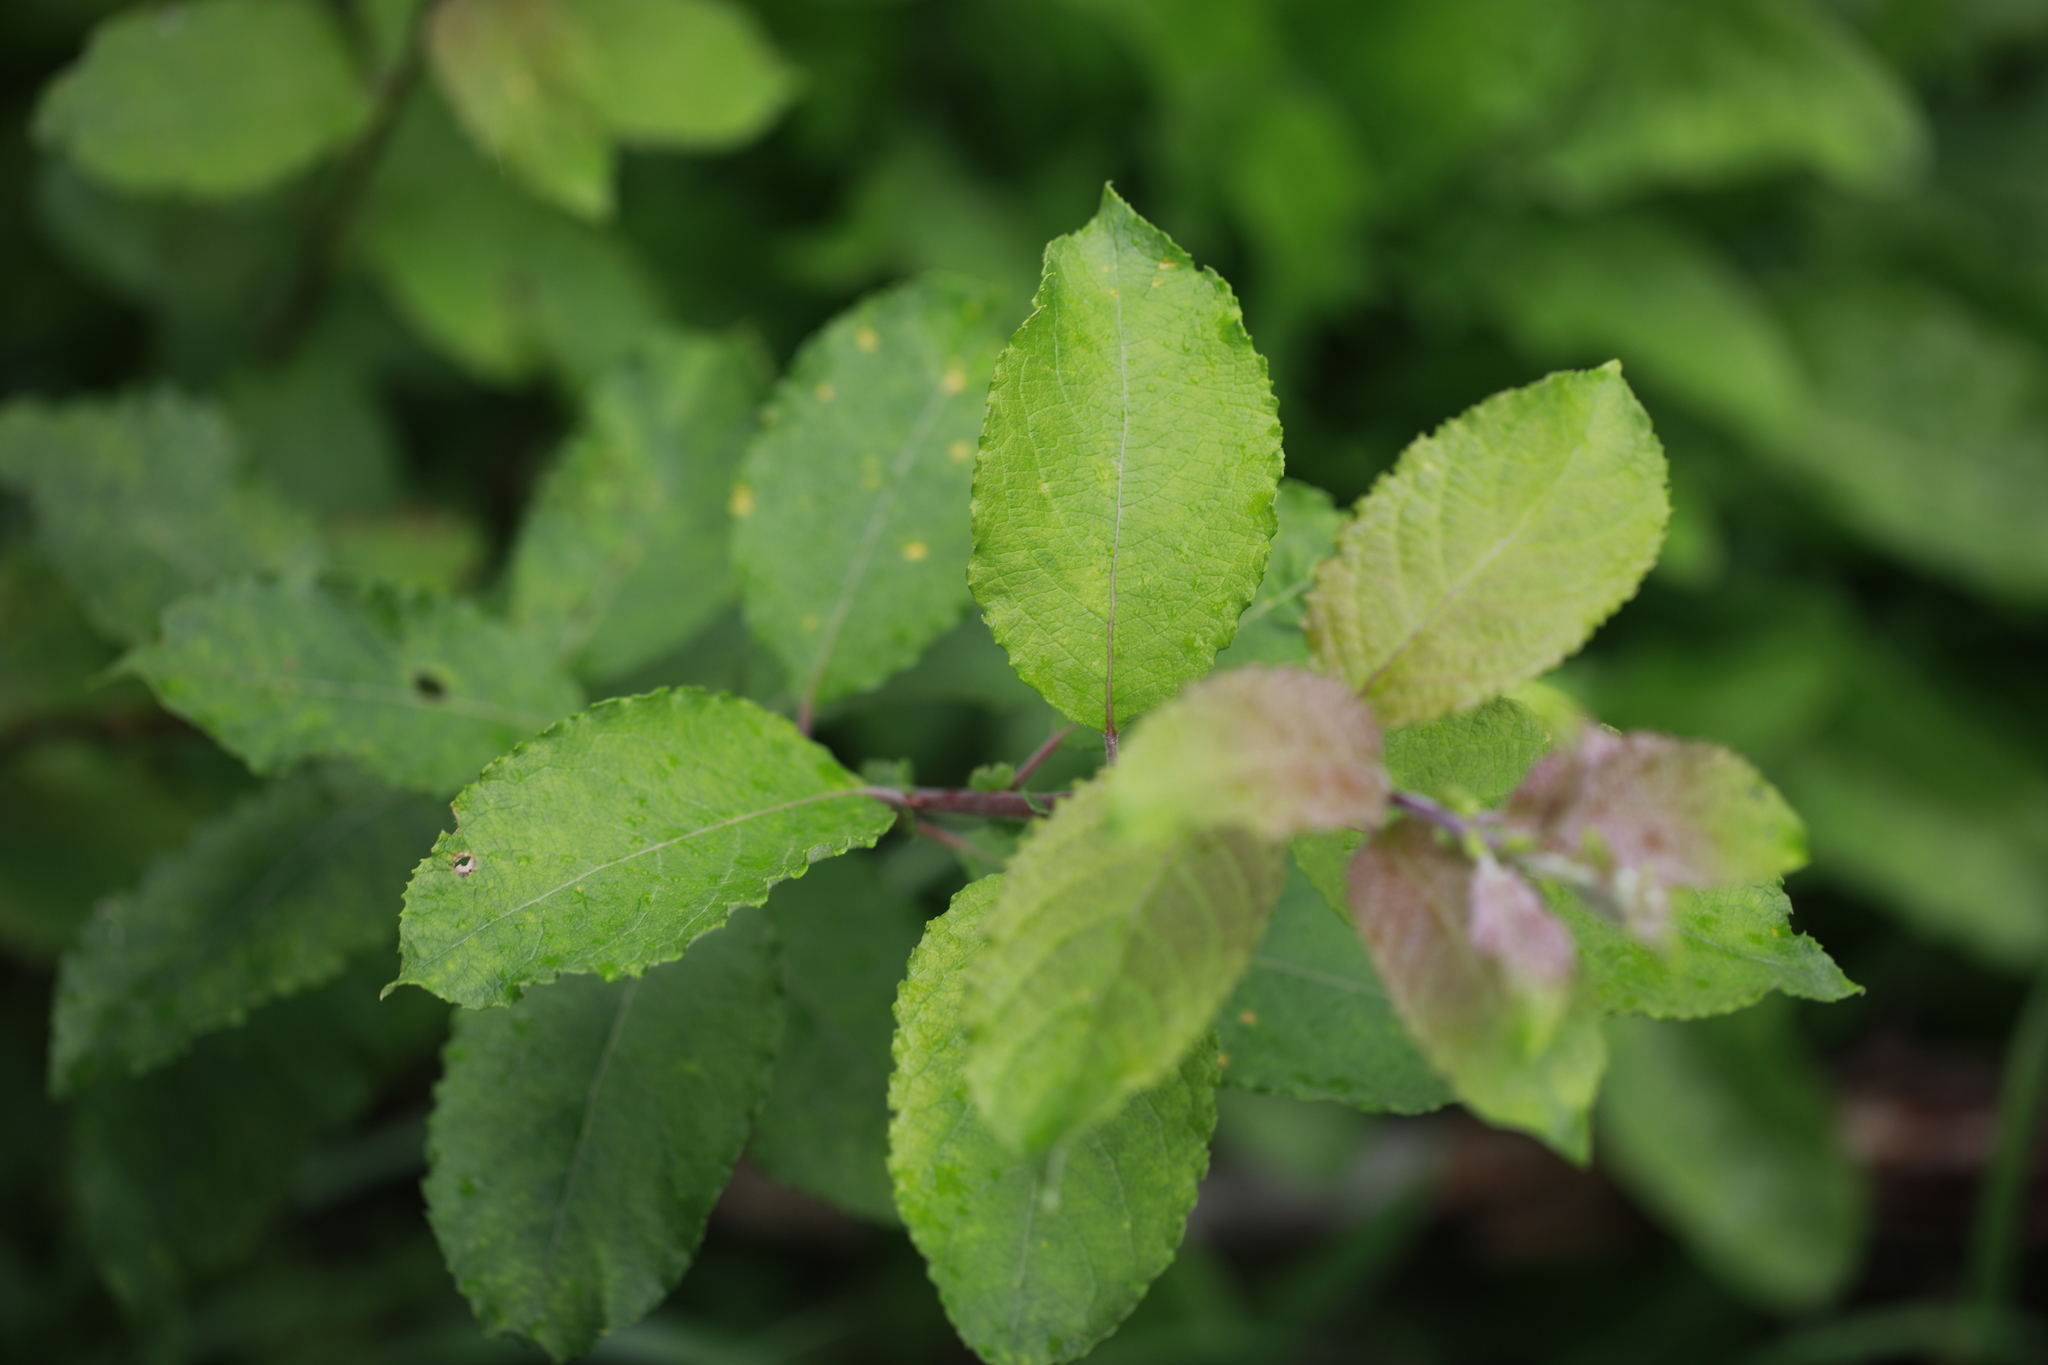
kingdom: Plantae
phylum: Tracheophyta
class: Magnoliopsida
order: Malpighiales
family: Salicaceae
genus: Salix
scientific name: Salix caprea
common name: Goat willow
